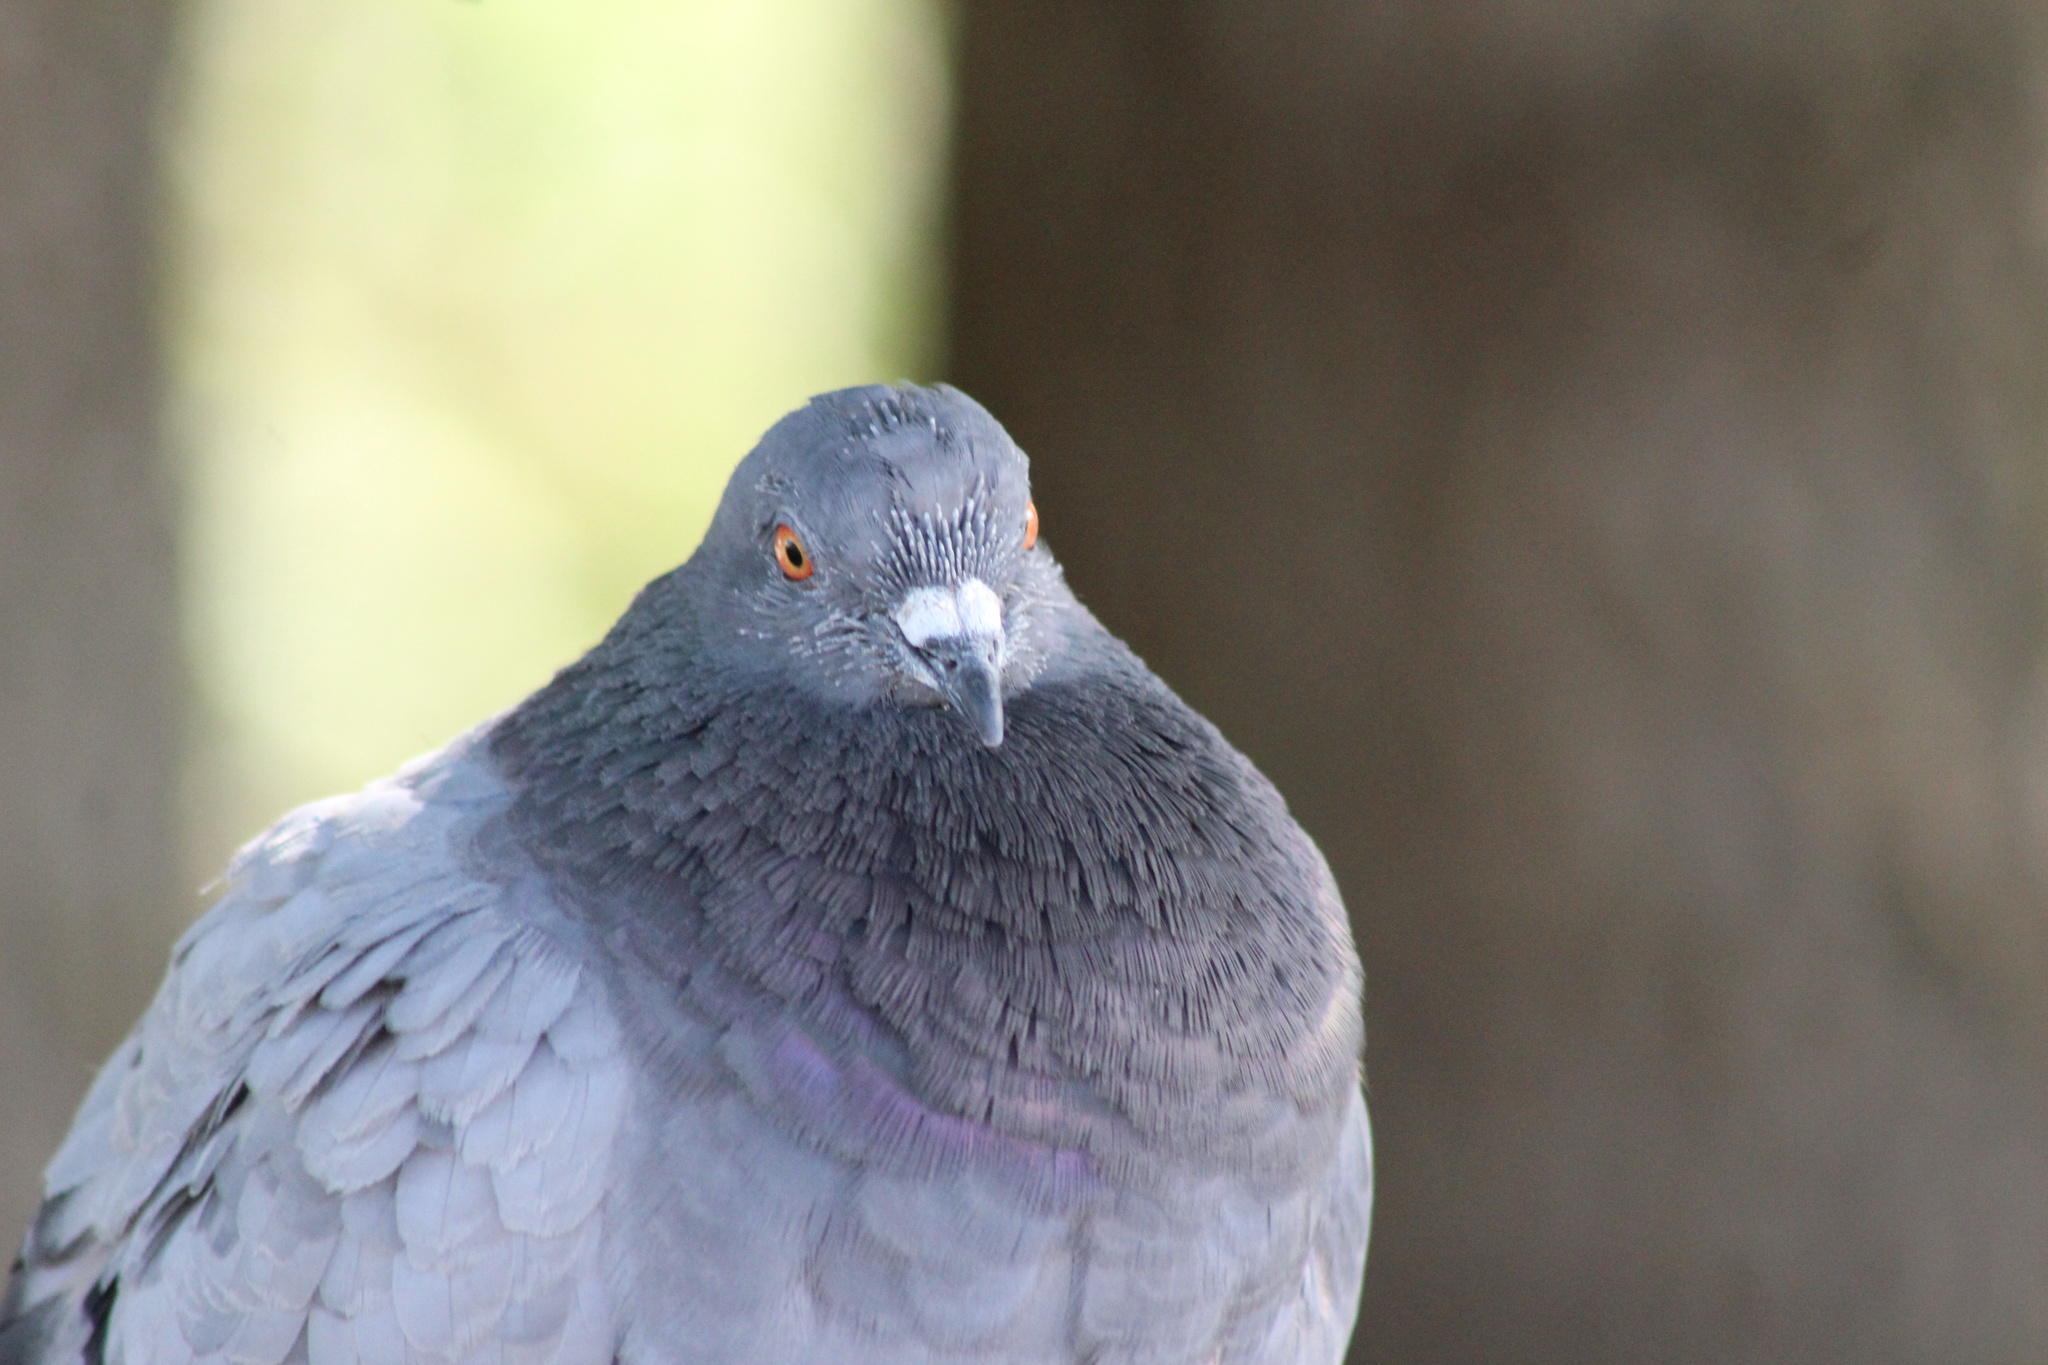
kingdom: Animalia
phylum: Chordata
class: Aves
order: Columbiformes
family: Columbidae
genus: Columba
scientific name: Columba livia
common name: Rock pigeon
